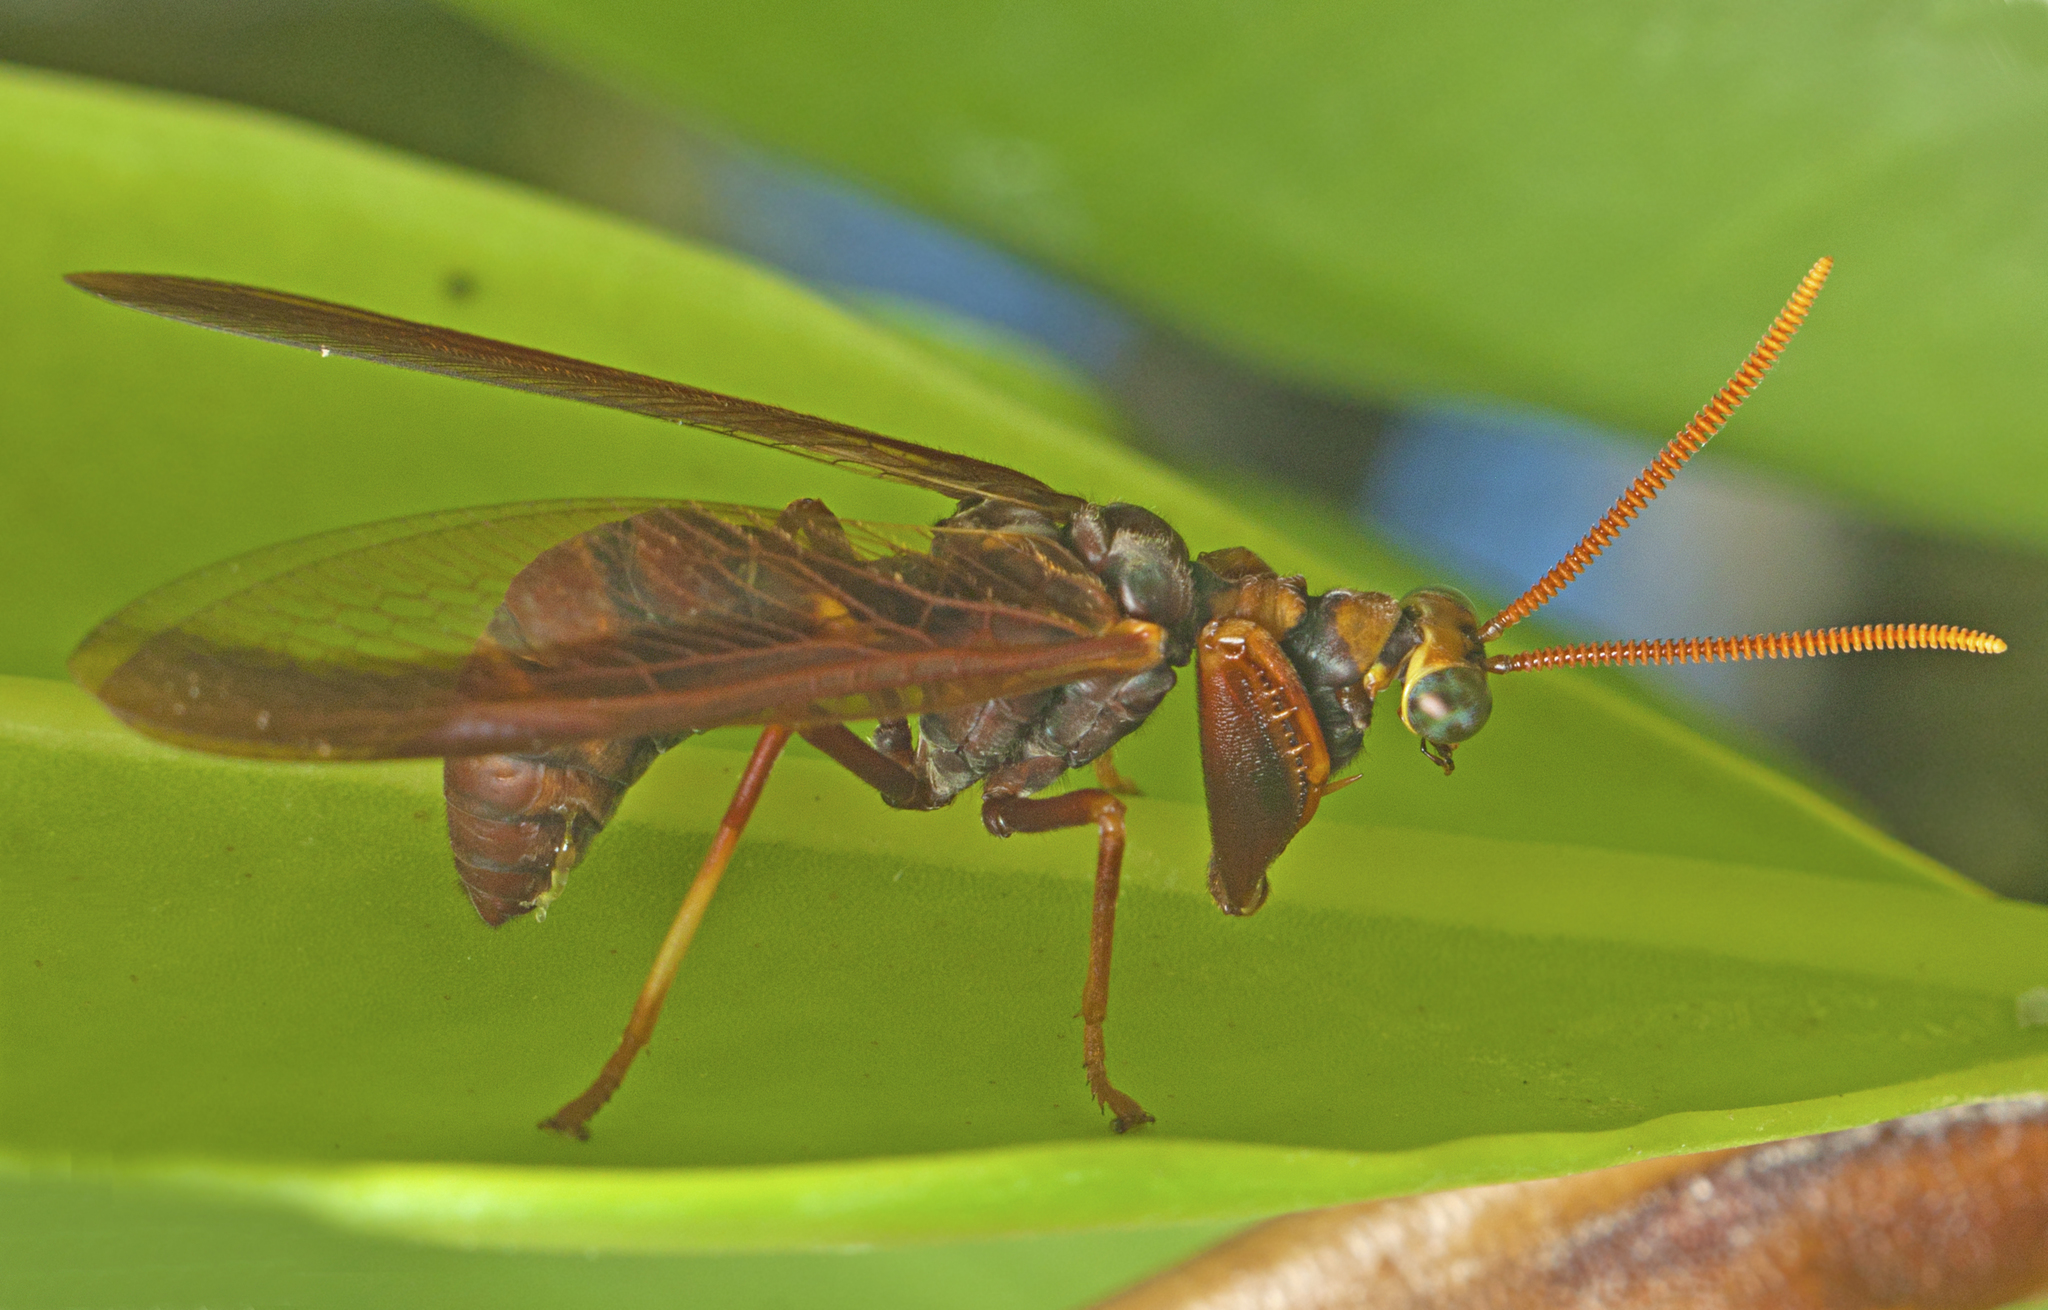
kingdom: Animalia
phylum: Arthropoda
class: Insecta
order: Neuroptera
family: Mantispidae
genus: Euclimacia
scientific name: Euclimacia nuchalis
